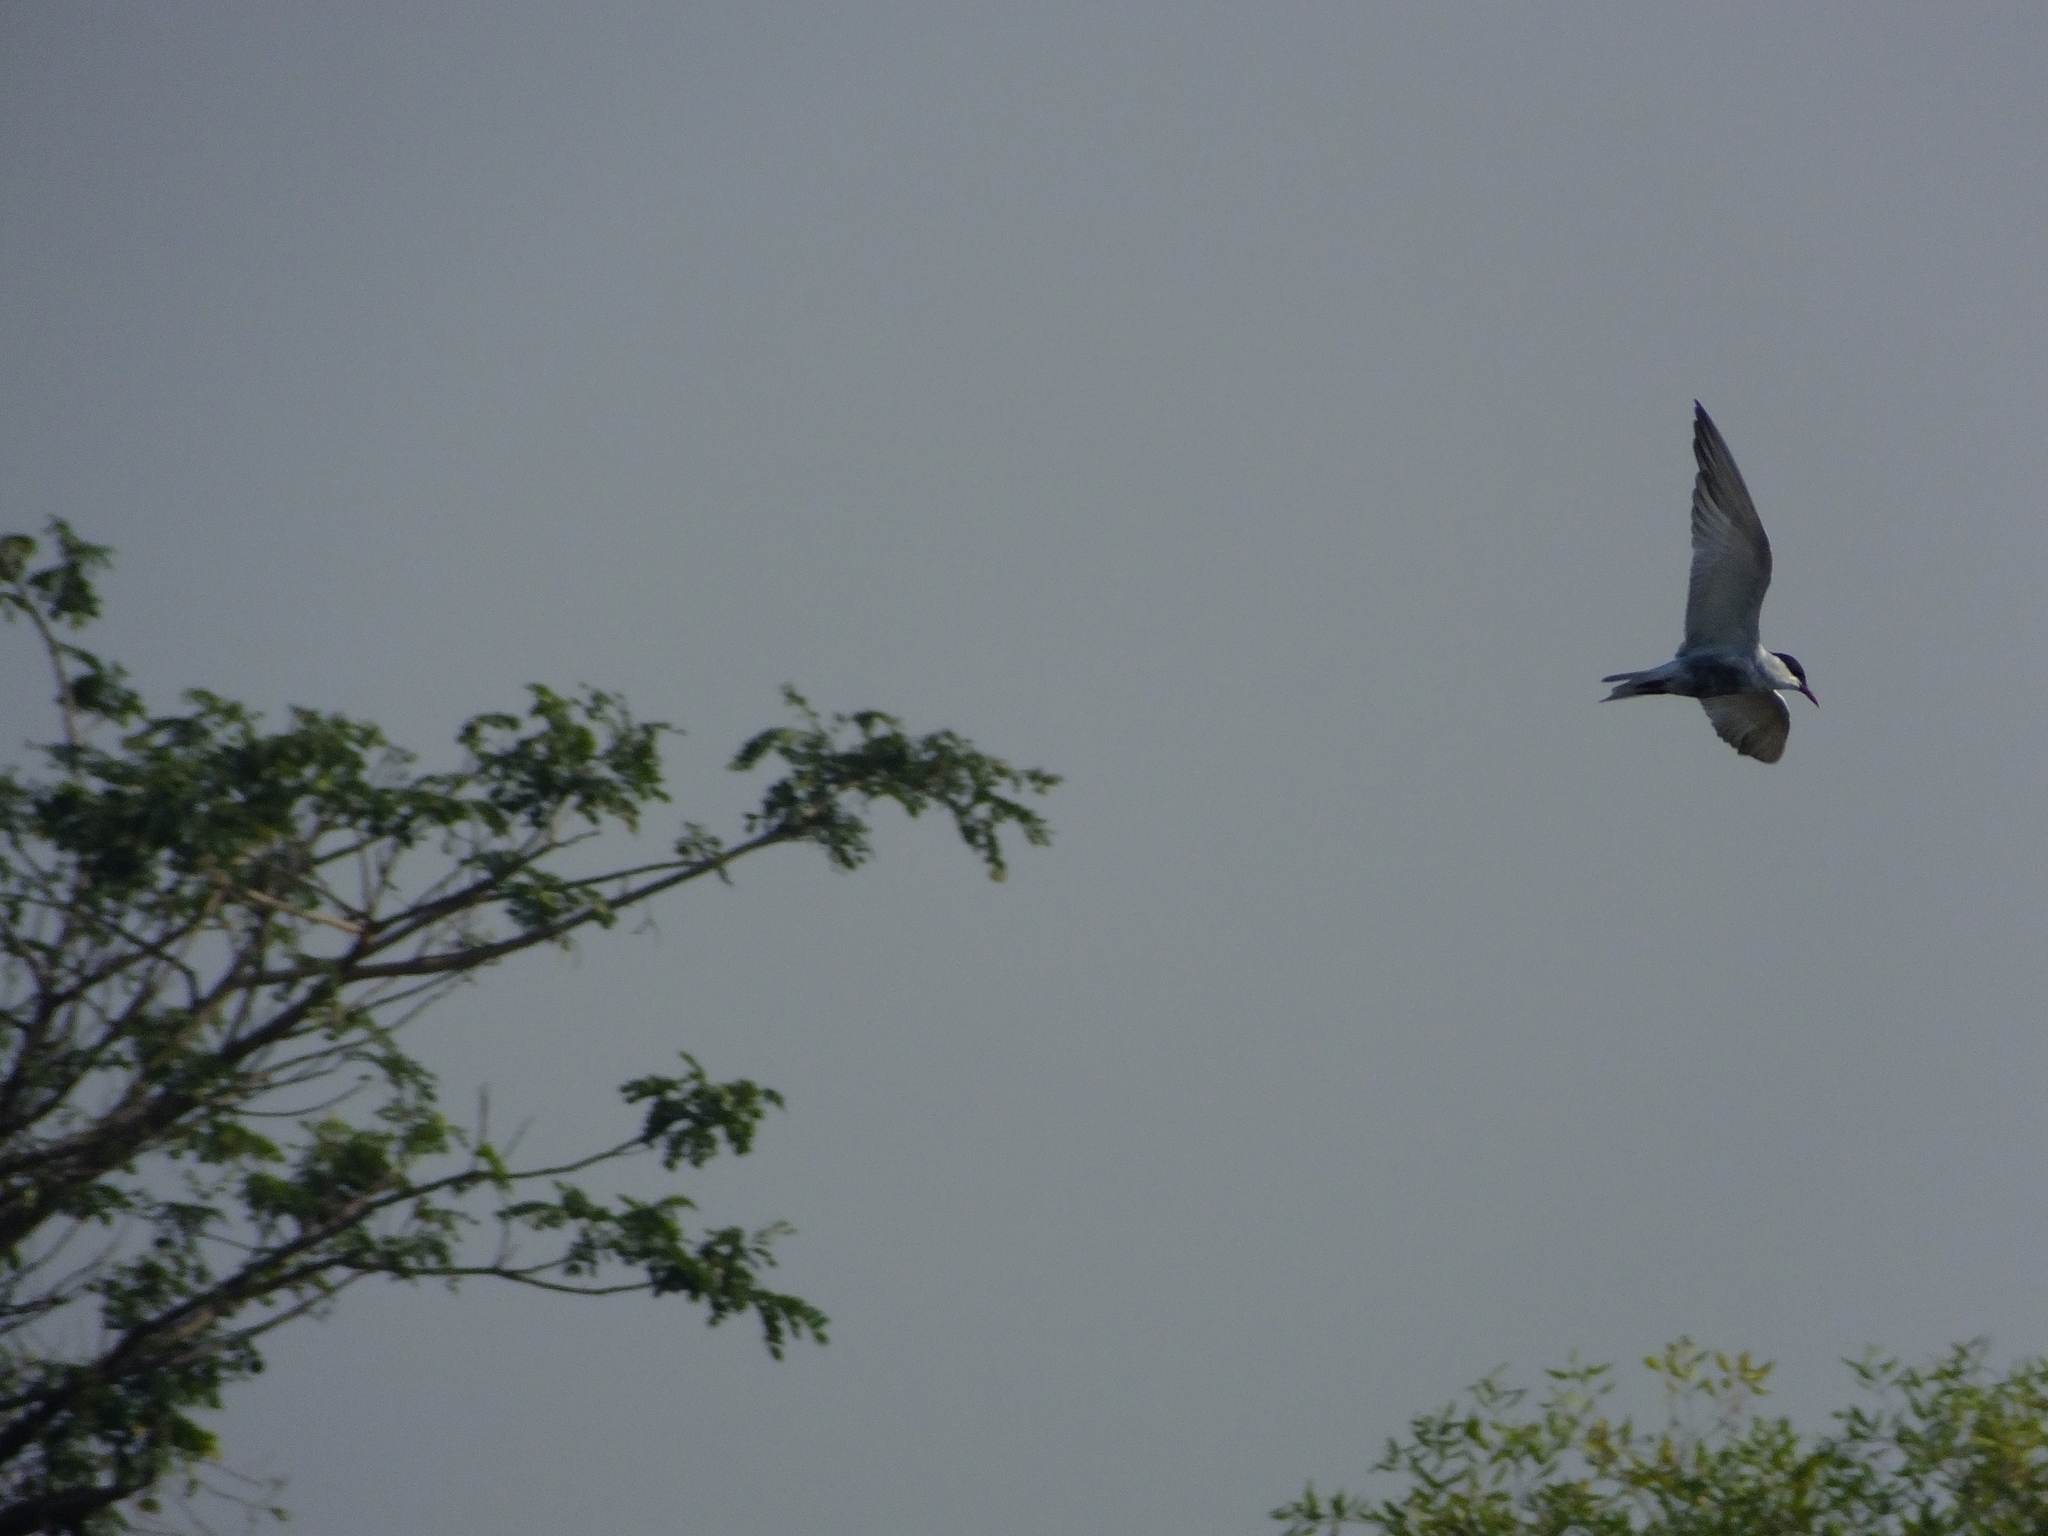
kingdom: Animalia
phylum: Chordata
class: Aves
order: Charadriiformes
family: Laridae
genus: Chlidonias
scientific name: Chlidonias hybrida
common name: Whiskered tern
